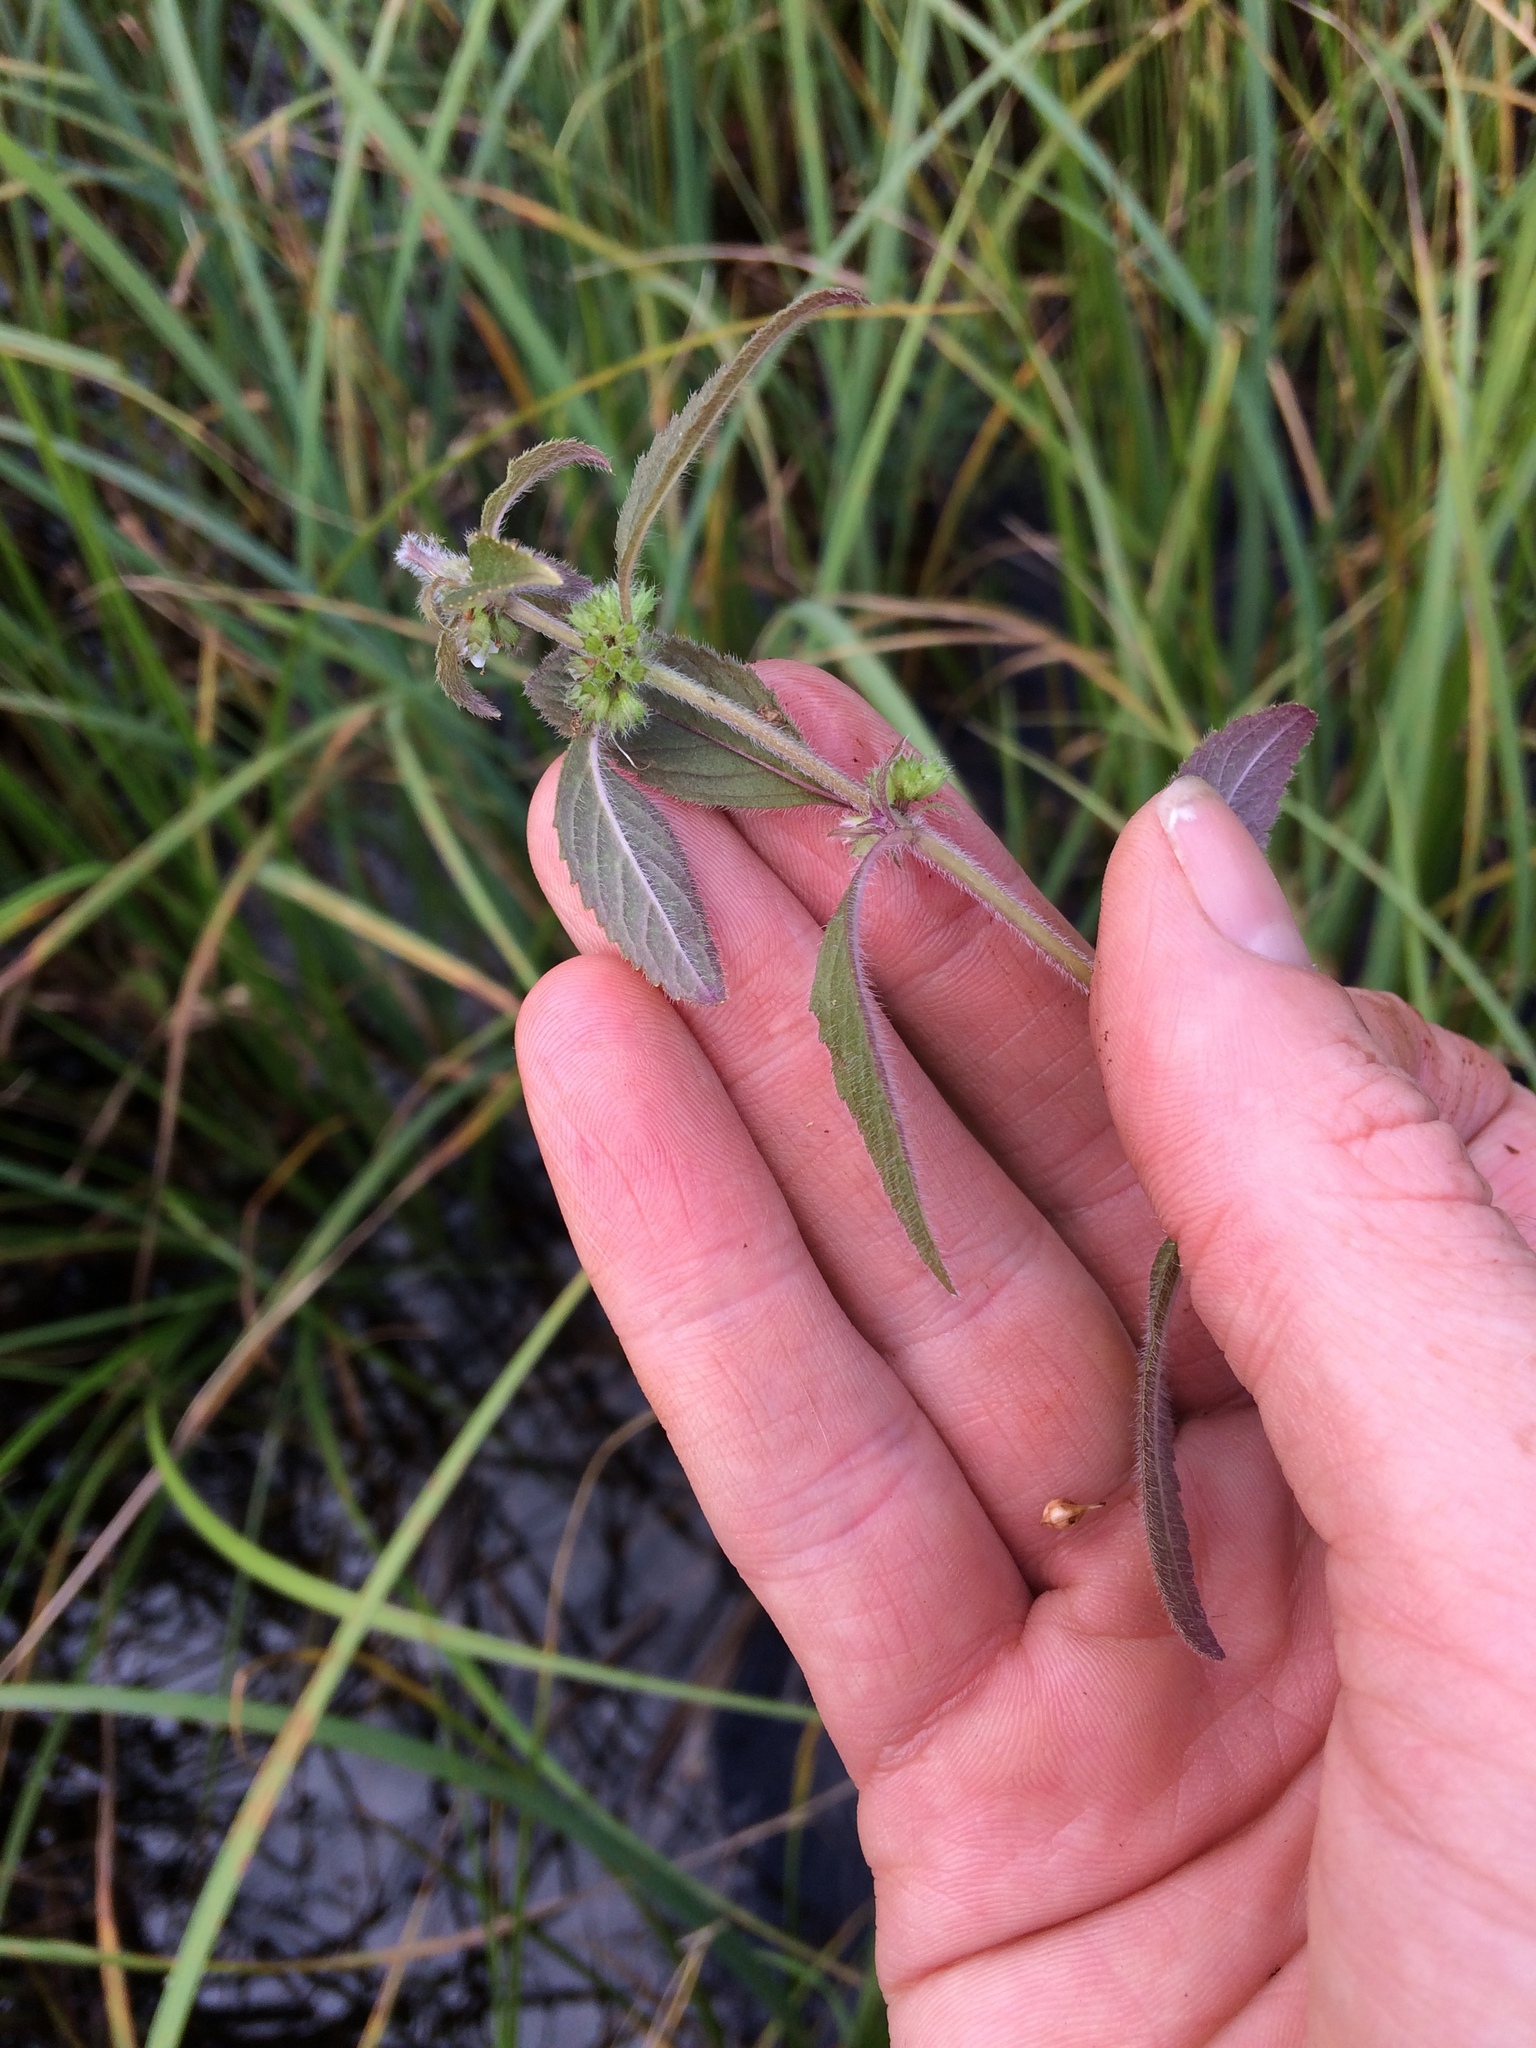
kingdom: Plantae
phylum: Tracheophyta
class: Magnoliopsida
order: Lamiales
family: Lamiaceae
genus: Mentha
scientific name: Mentha canadensis
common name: American corn mint
